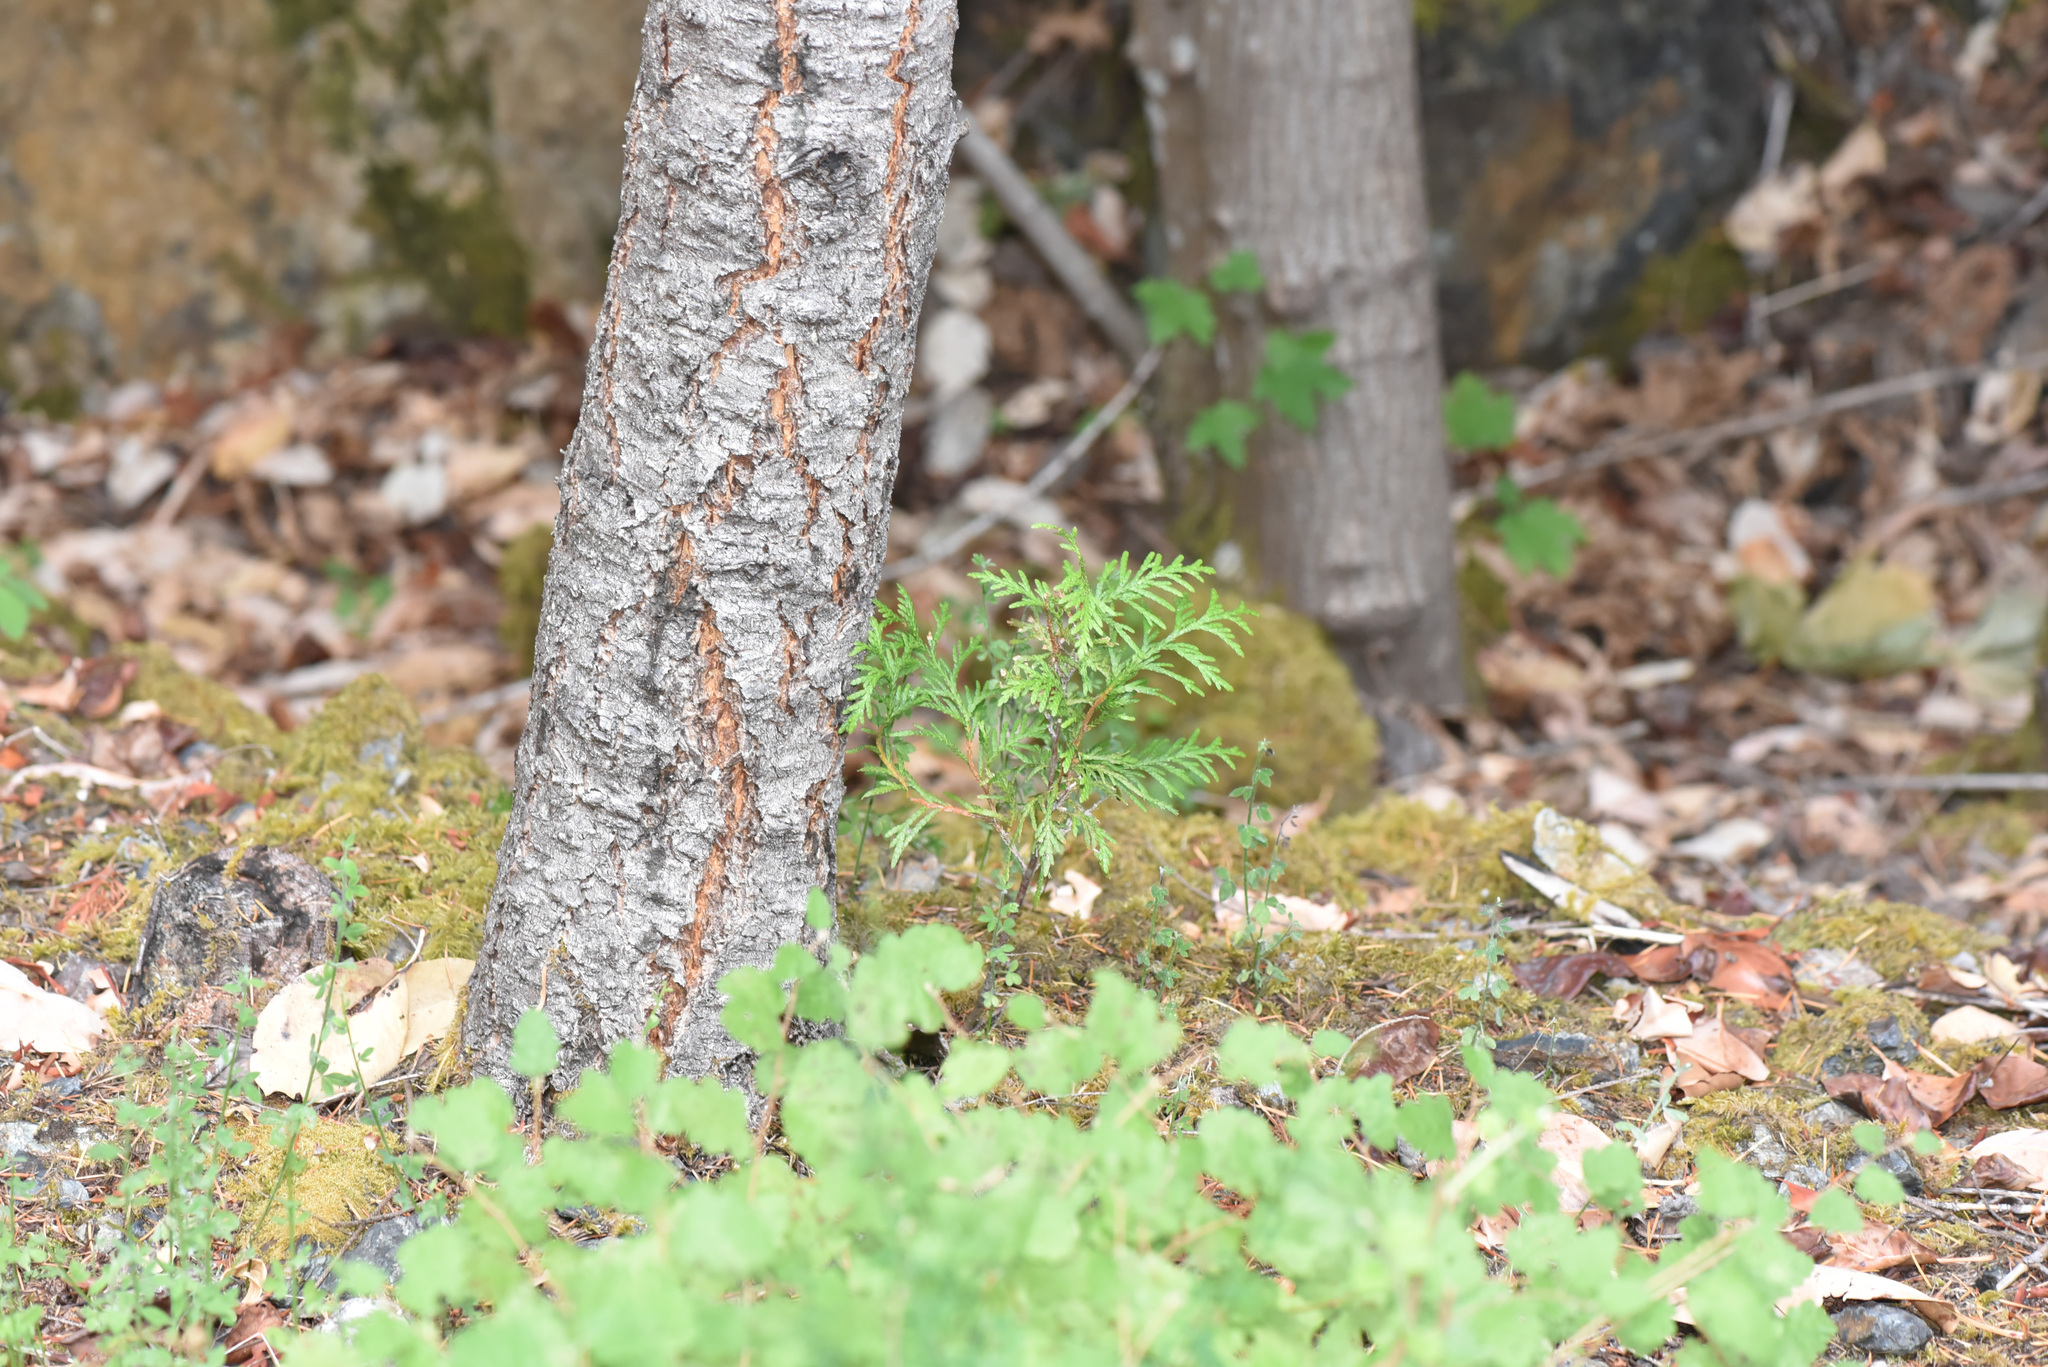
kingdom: Plantae
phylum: Tracheophyta
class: Pinopsida
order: Pinales
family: Cupressaceae
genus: Thuja
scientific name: Thuja plicata
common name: Western red-cedar
